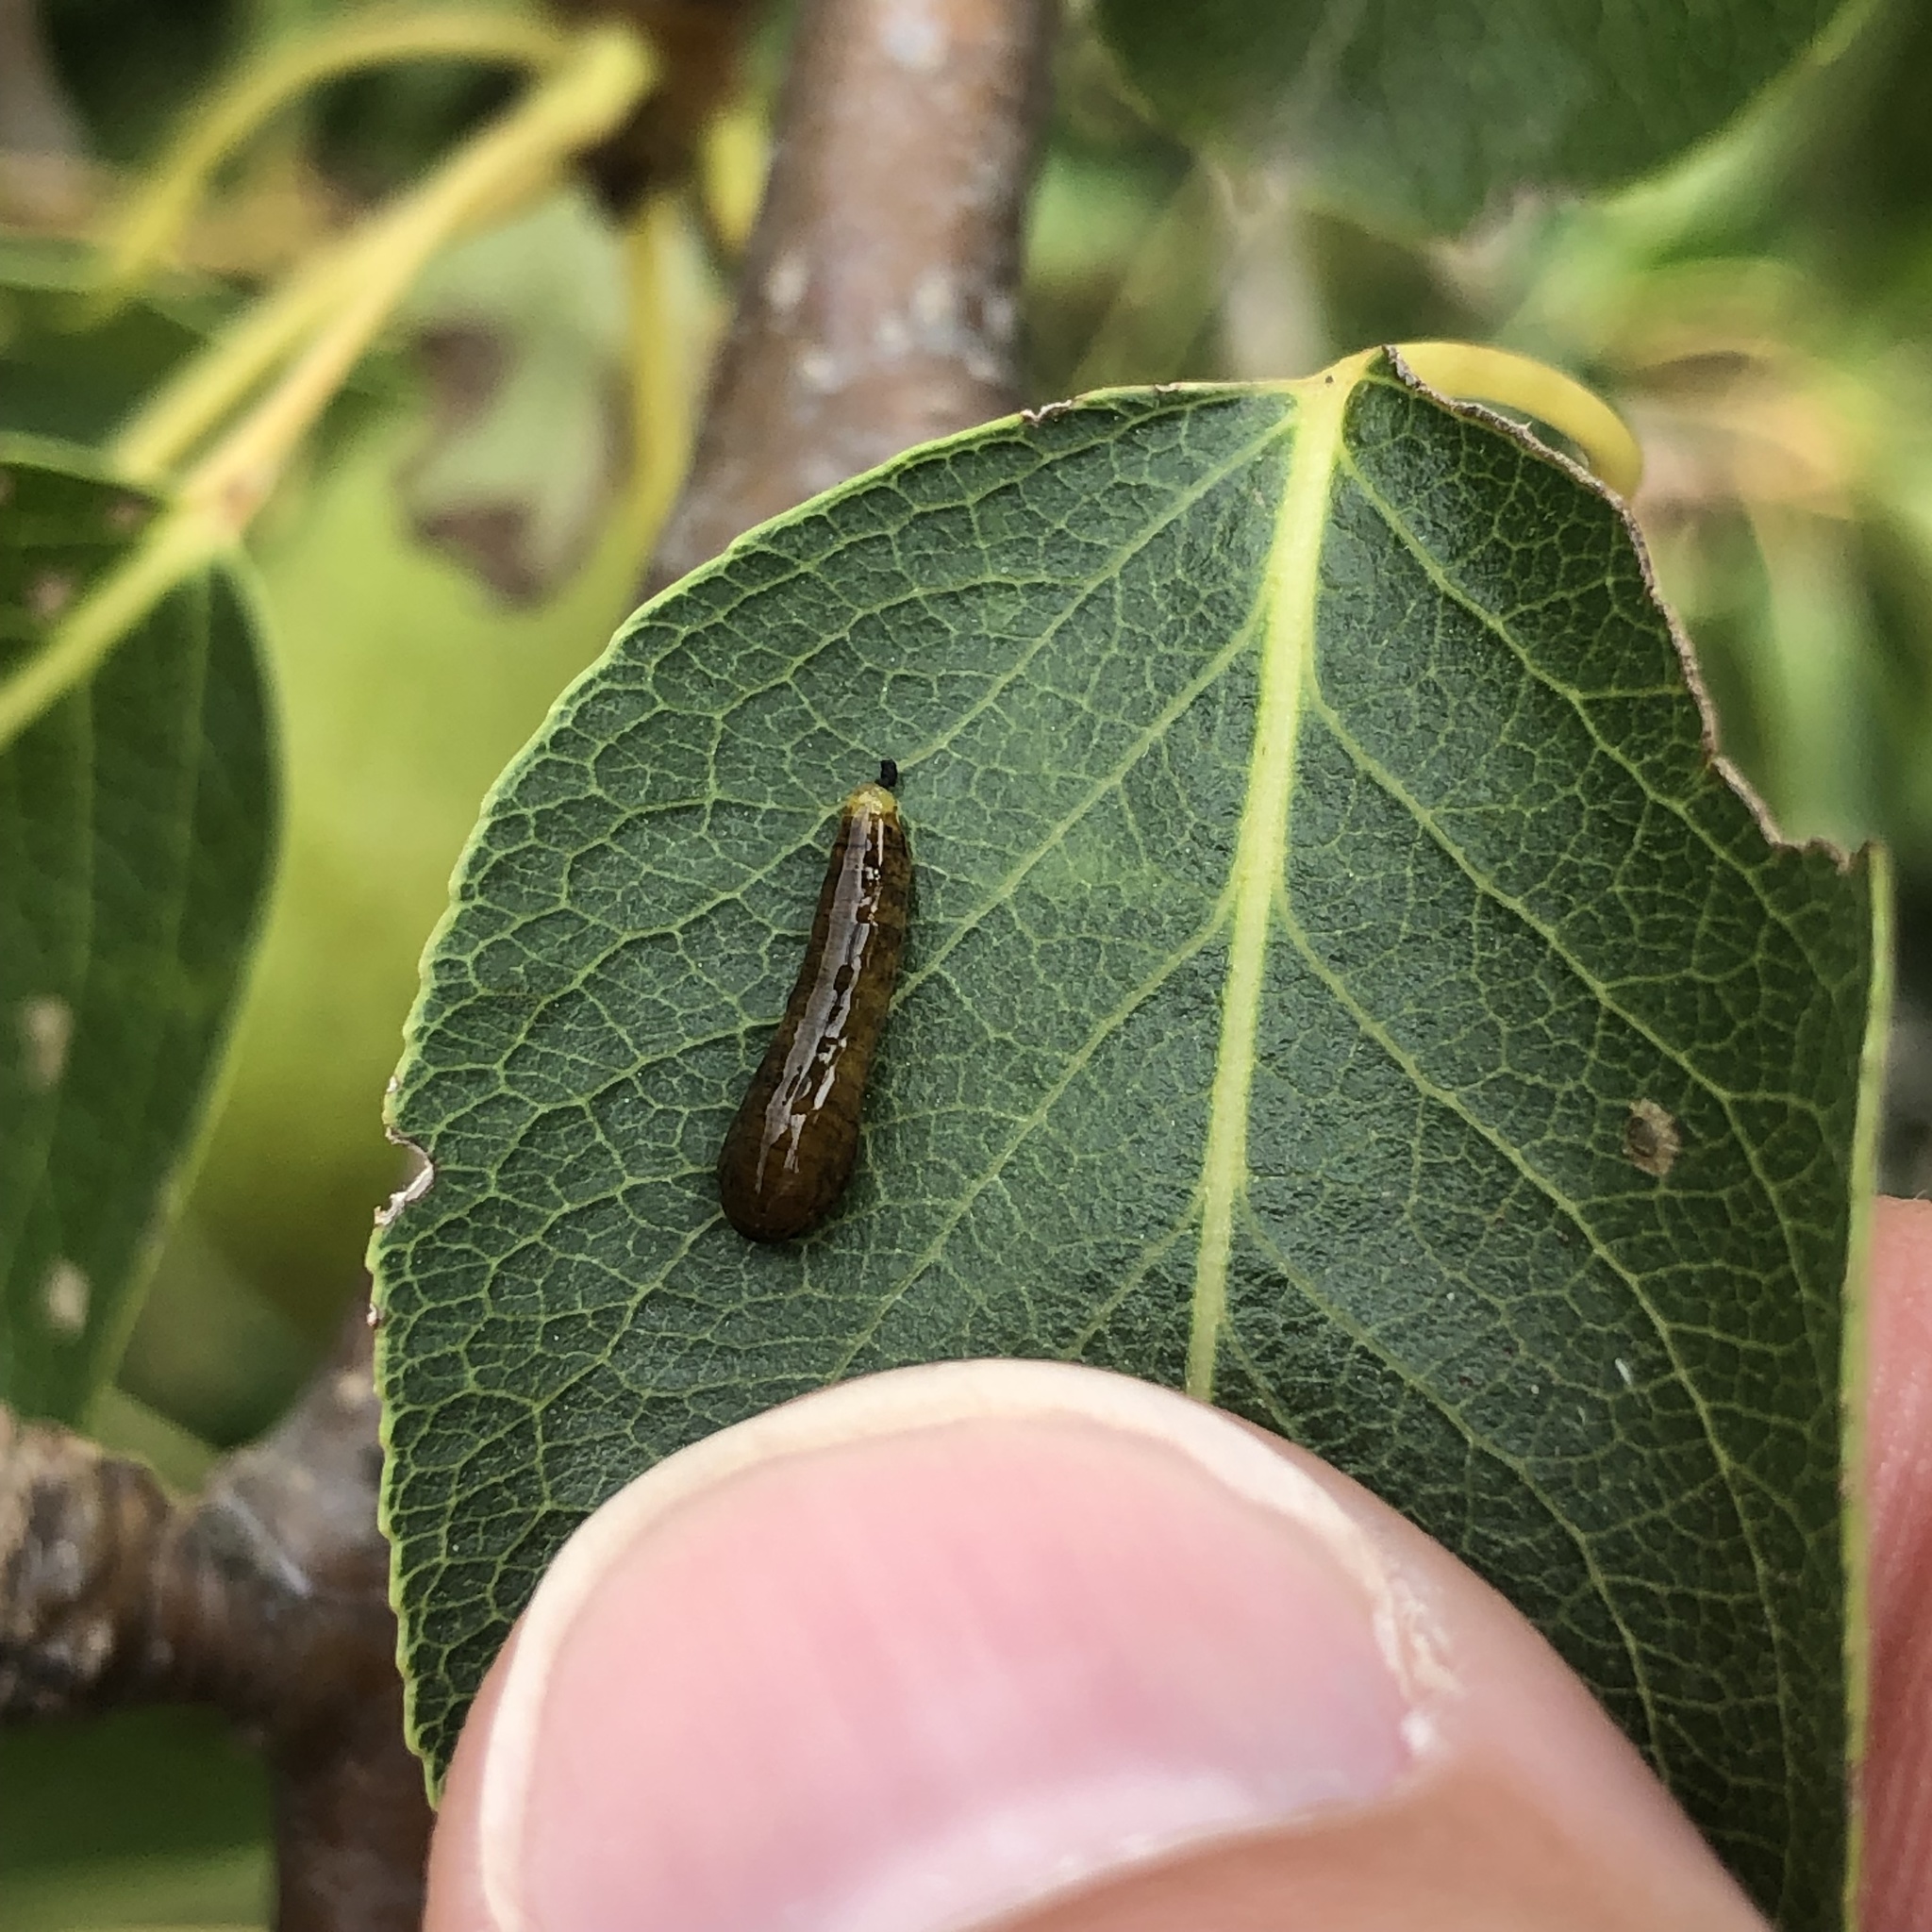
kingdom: Animalia
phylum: Arthropoda
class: Insecta
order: Hymenoptera
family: Tenthredinidae
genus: Caliroa
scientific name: Caliroa cerasi
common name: Pear sawfly
